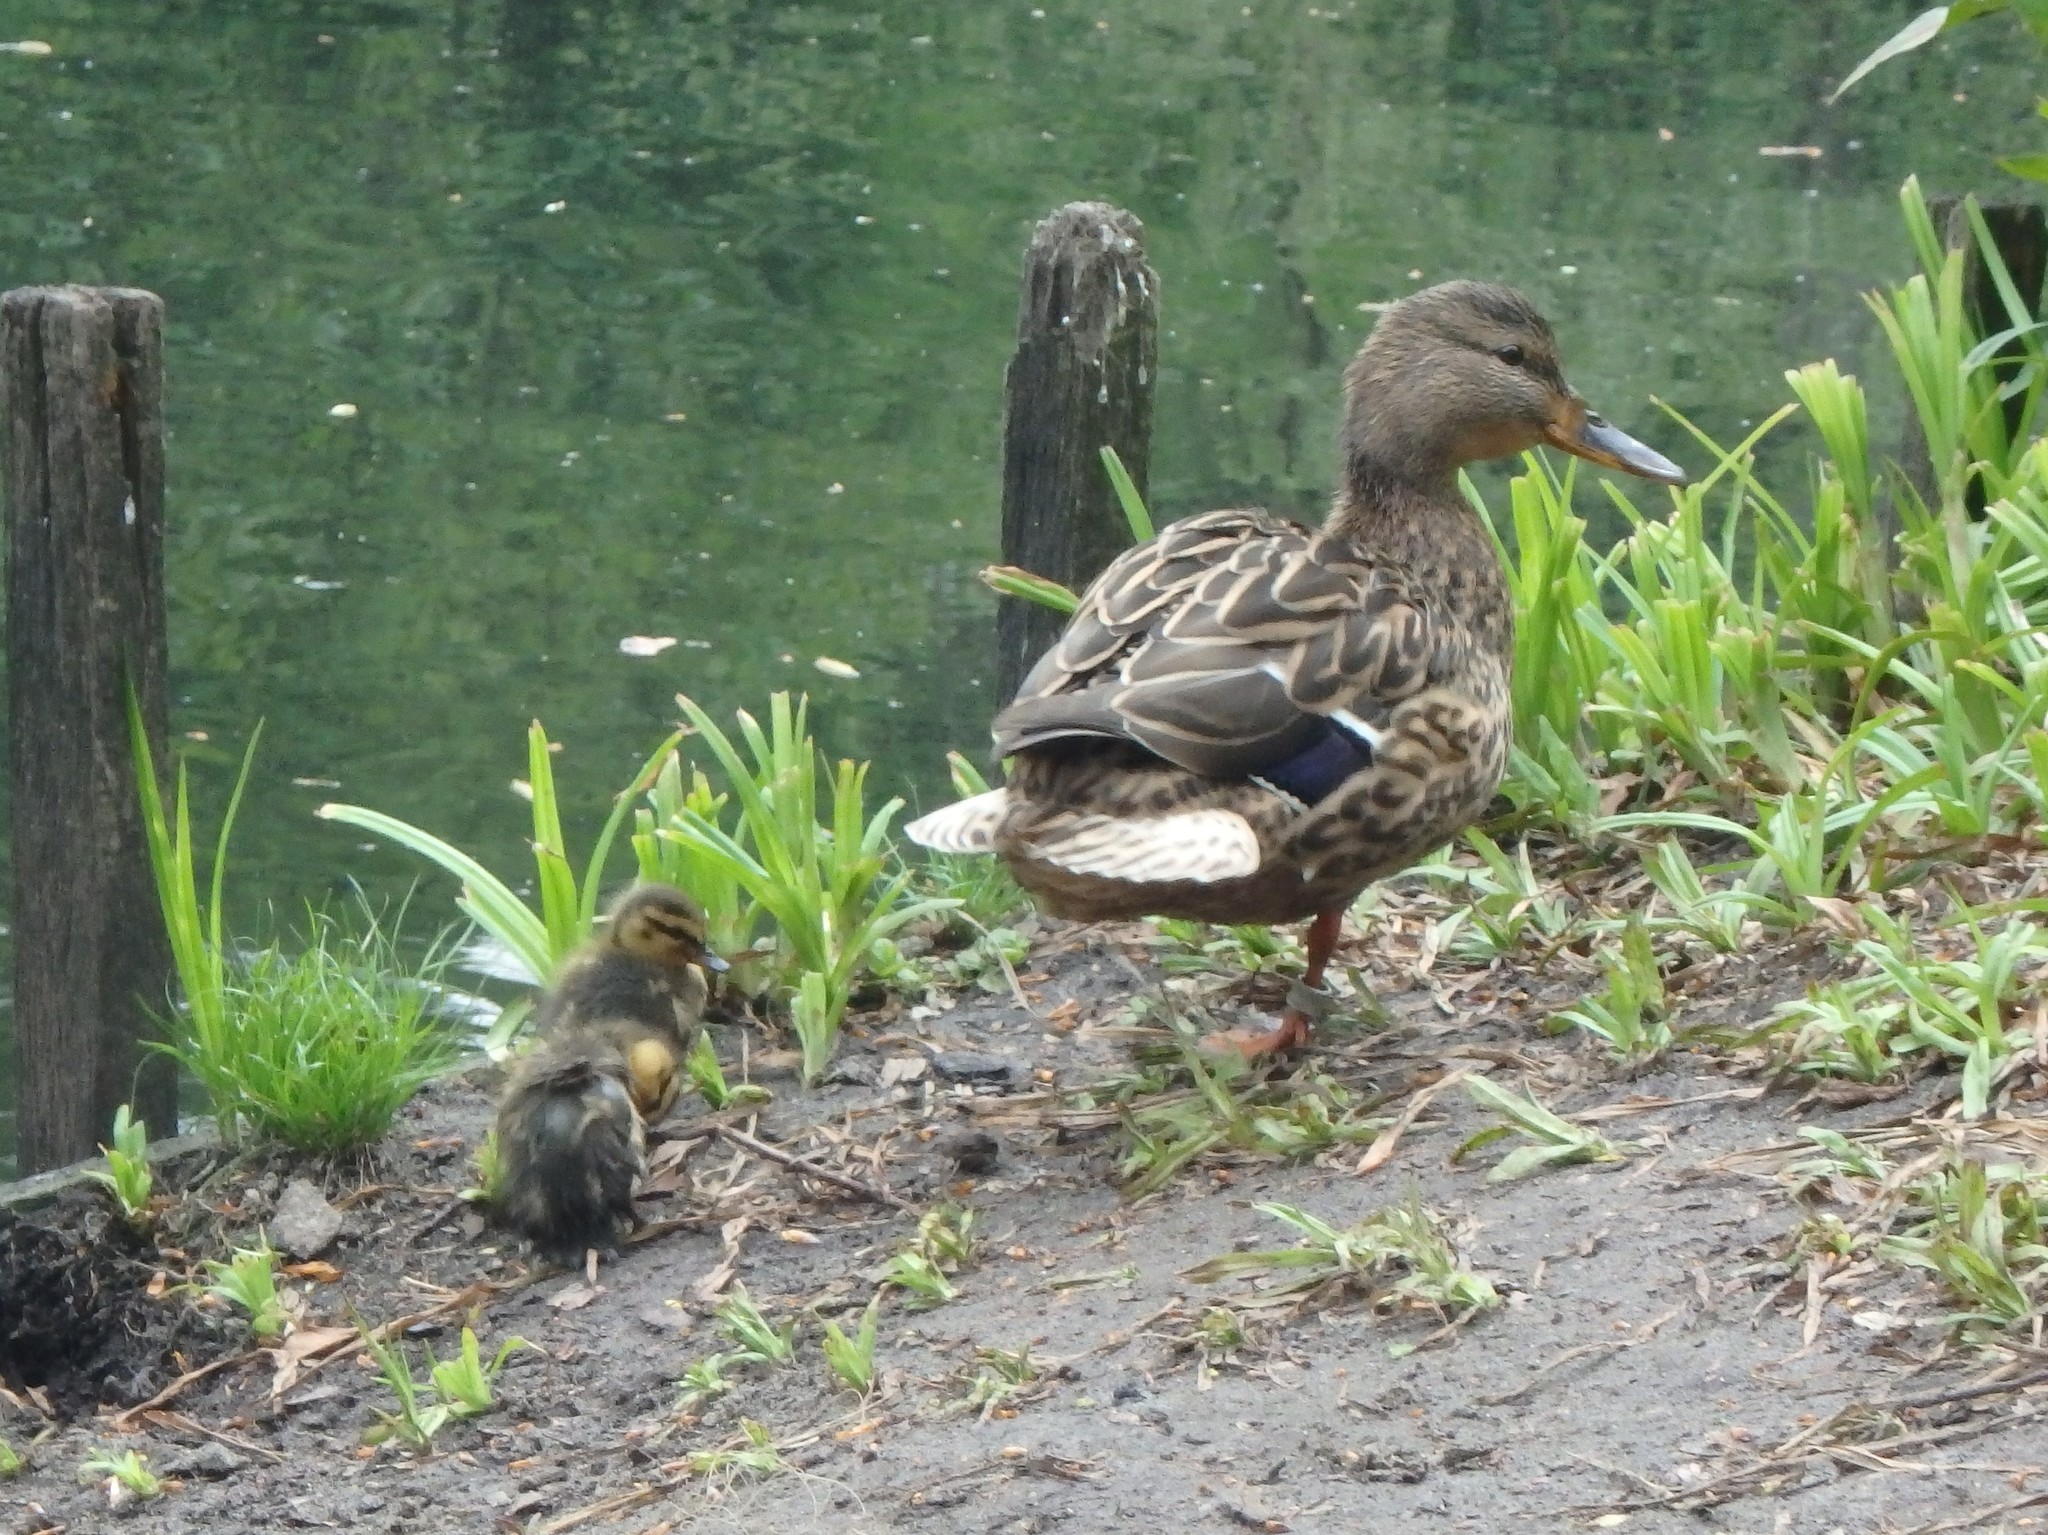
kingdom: Animalia
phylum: Chordata
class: Aves
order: Anseriformes
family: Anatidae
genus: Anas
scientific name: Anas platyrhynchos
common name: Mallard
